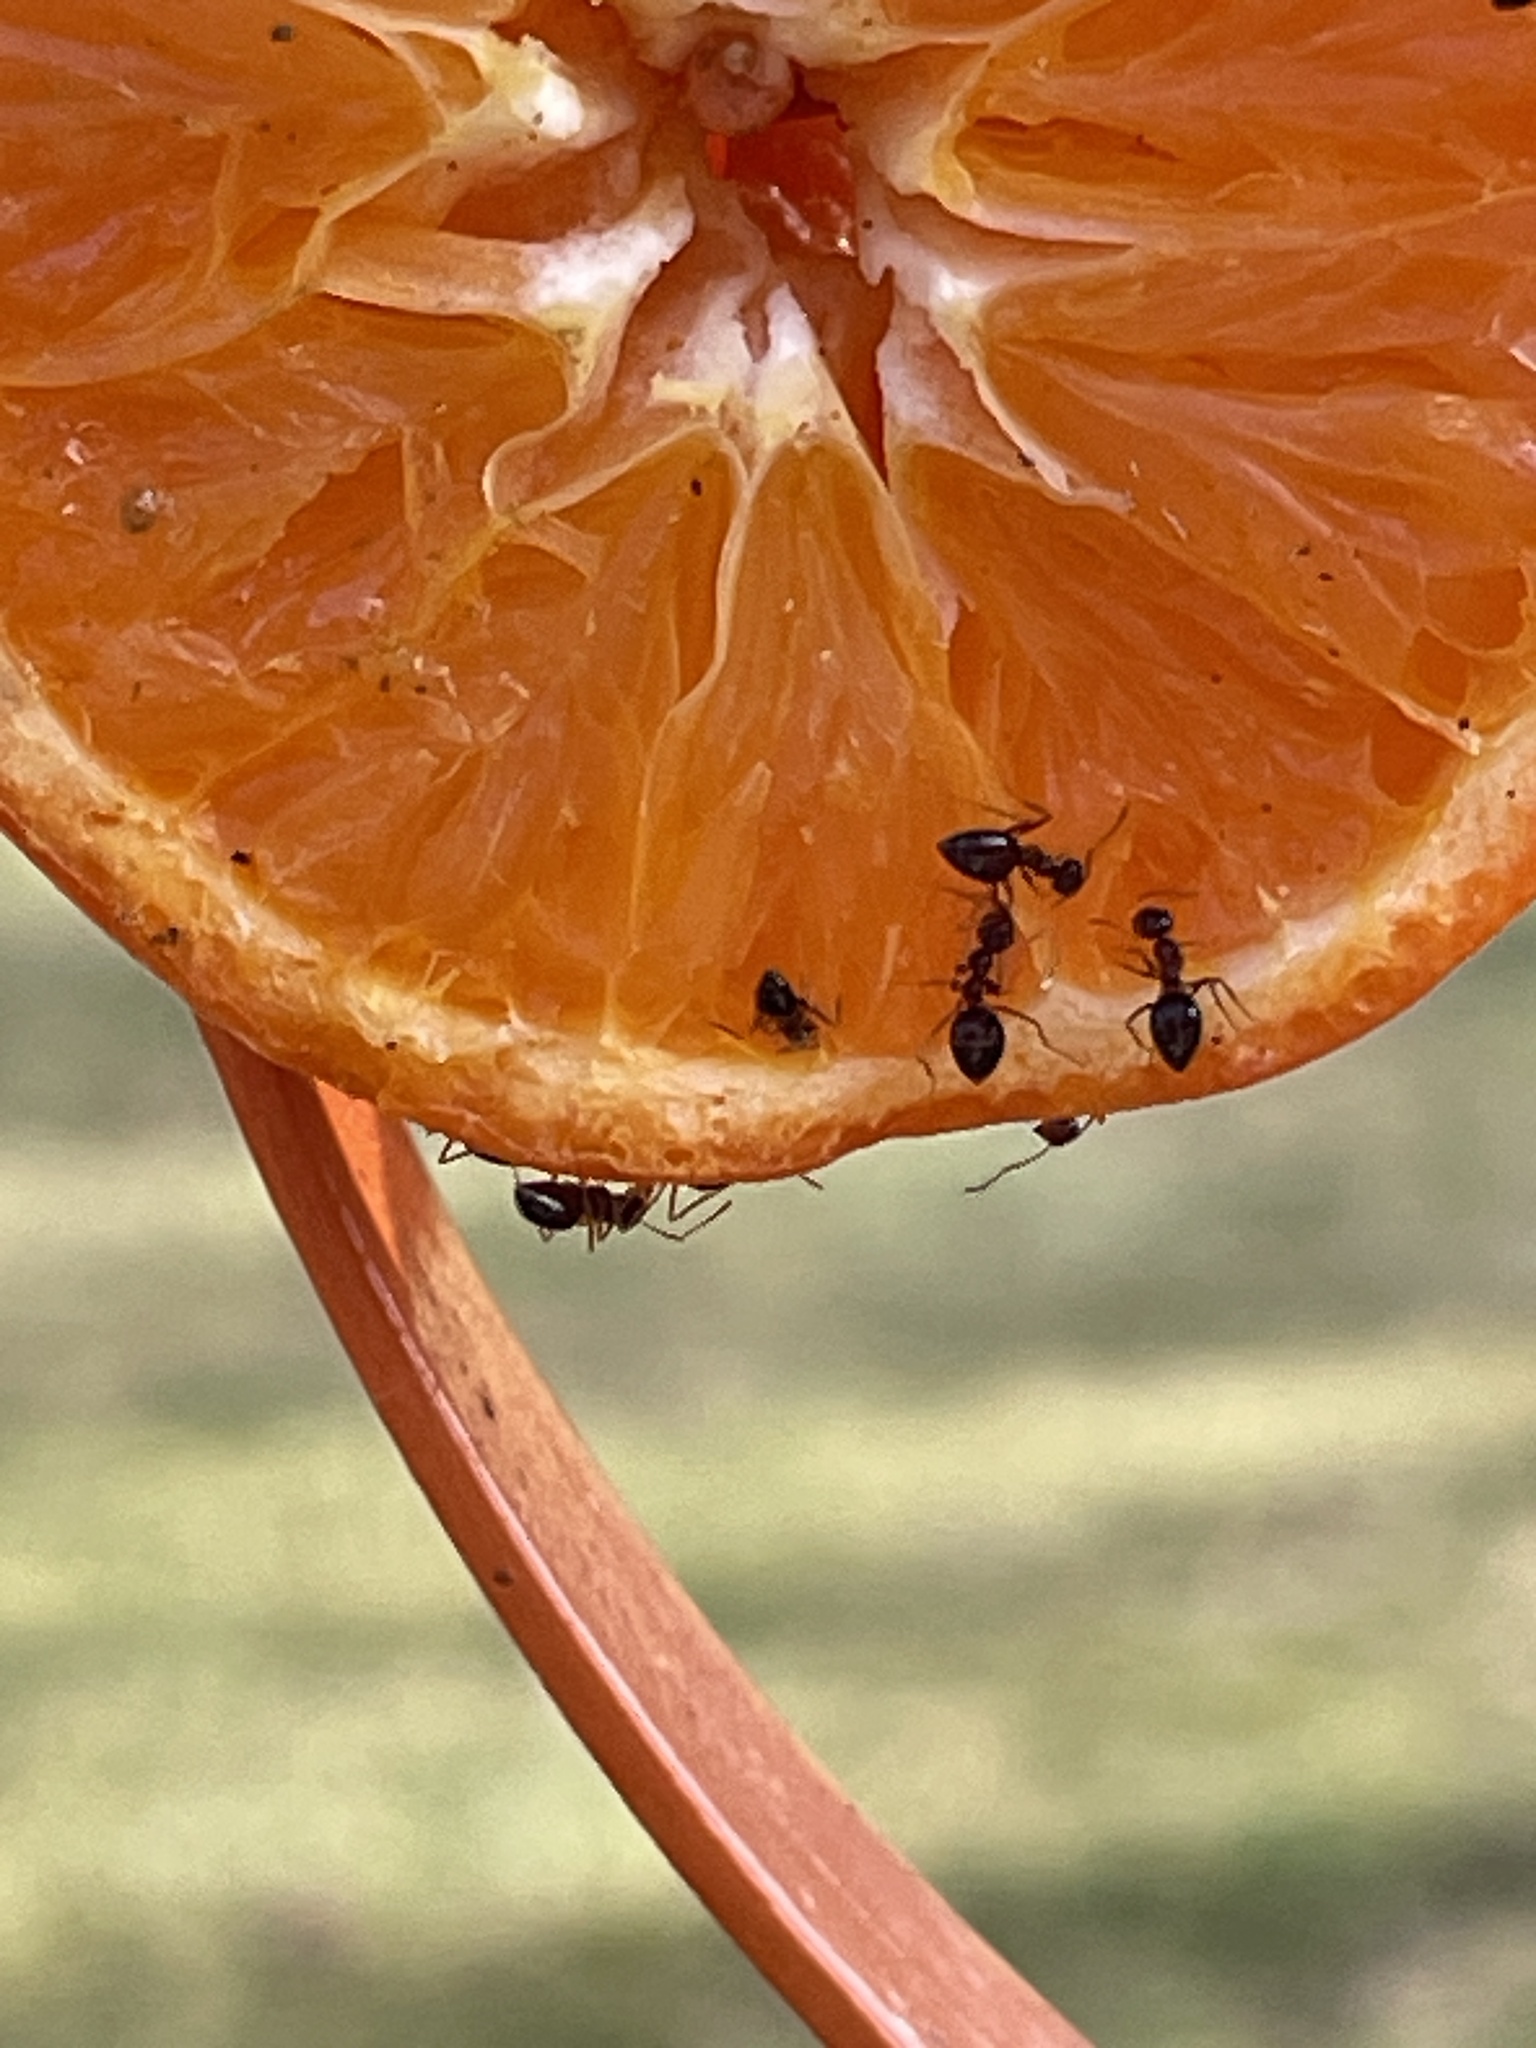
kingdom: Animalia
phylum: Arthropoda
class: Insecta
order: Hymenoptera
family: Formicidae
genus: Prenolepis
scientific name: Prenolepis imparis
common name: Small honey ant
